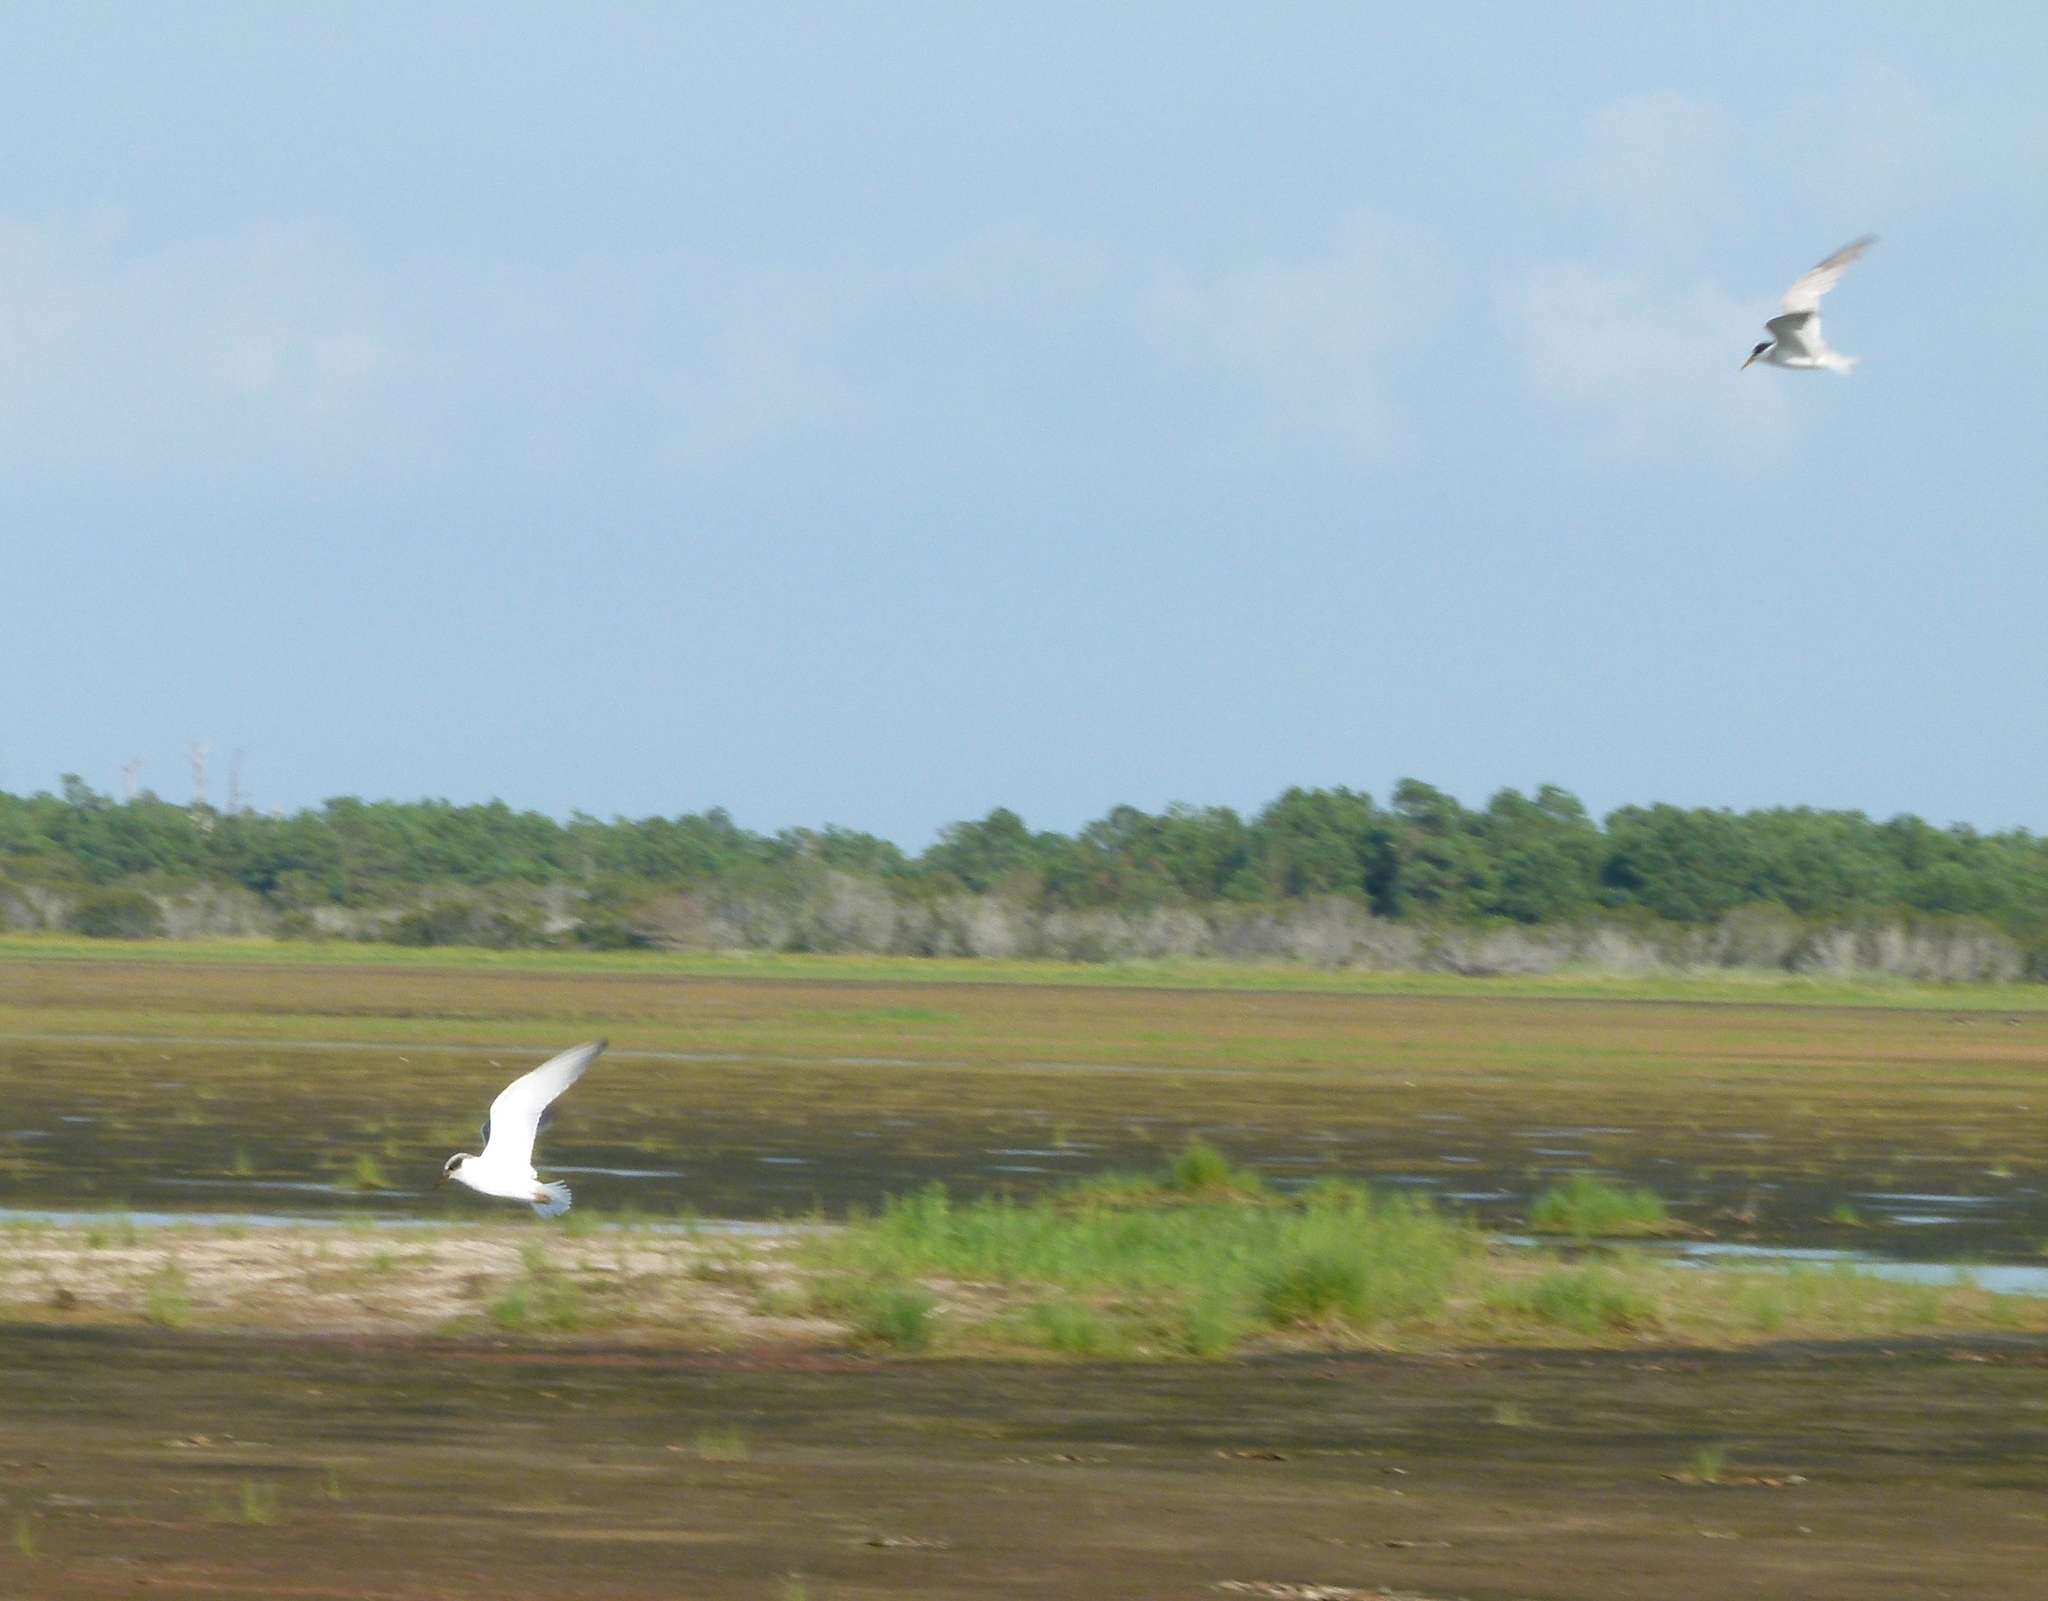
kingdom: Animalia
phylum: Chordata
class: Aves
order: Charadriiformes
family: Laridae
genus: Sternula
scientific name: Sternula antillarum
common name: Least tern
